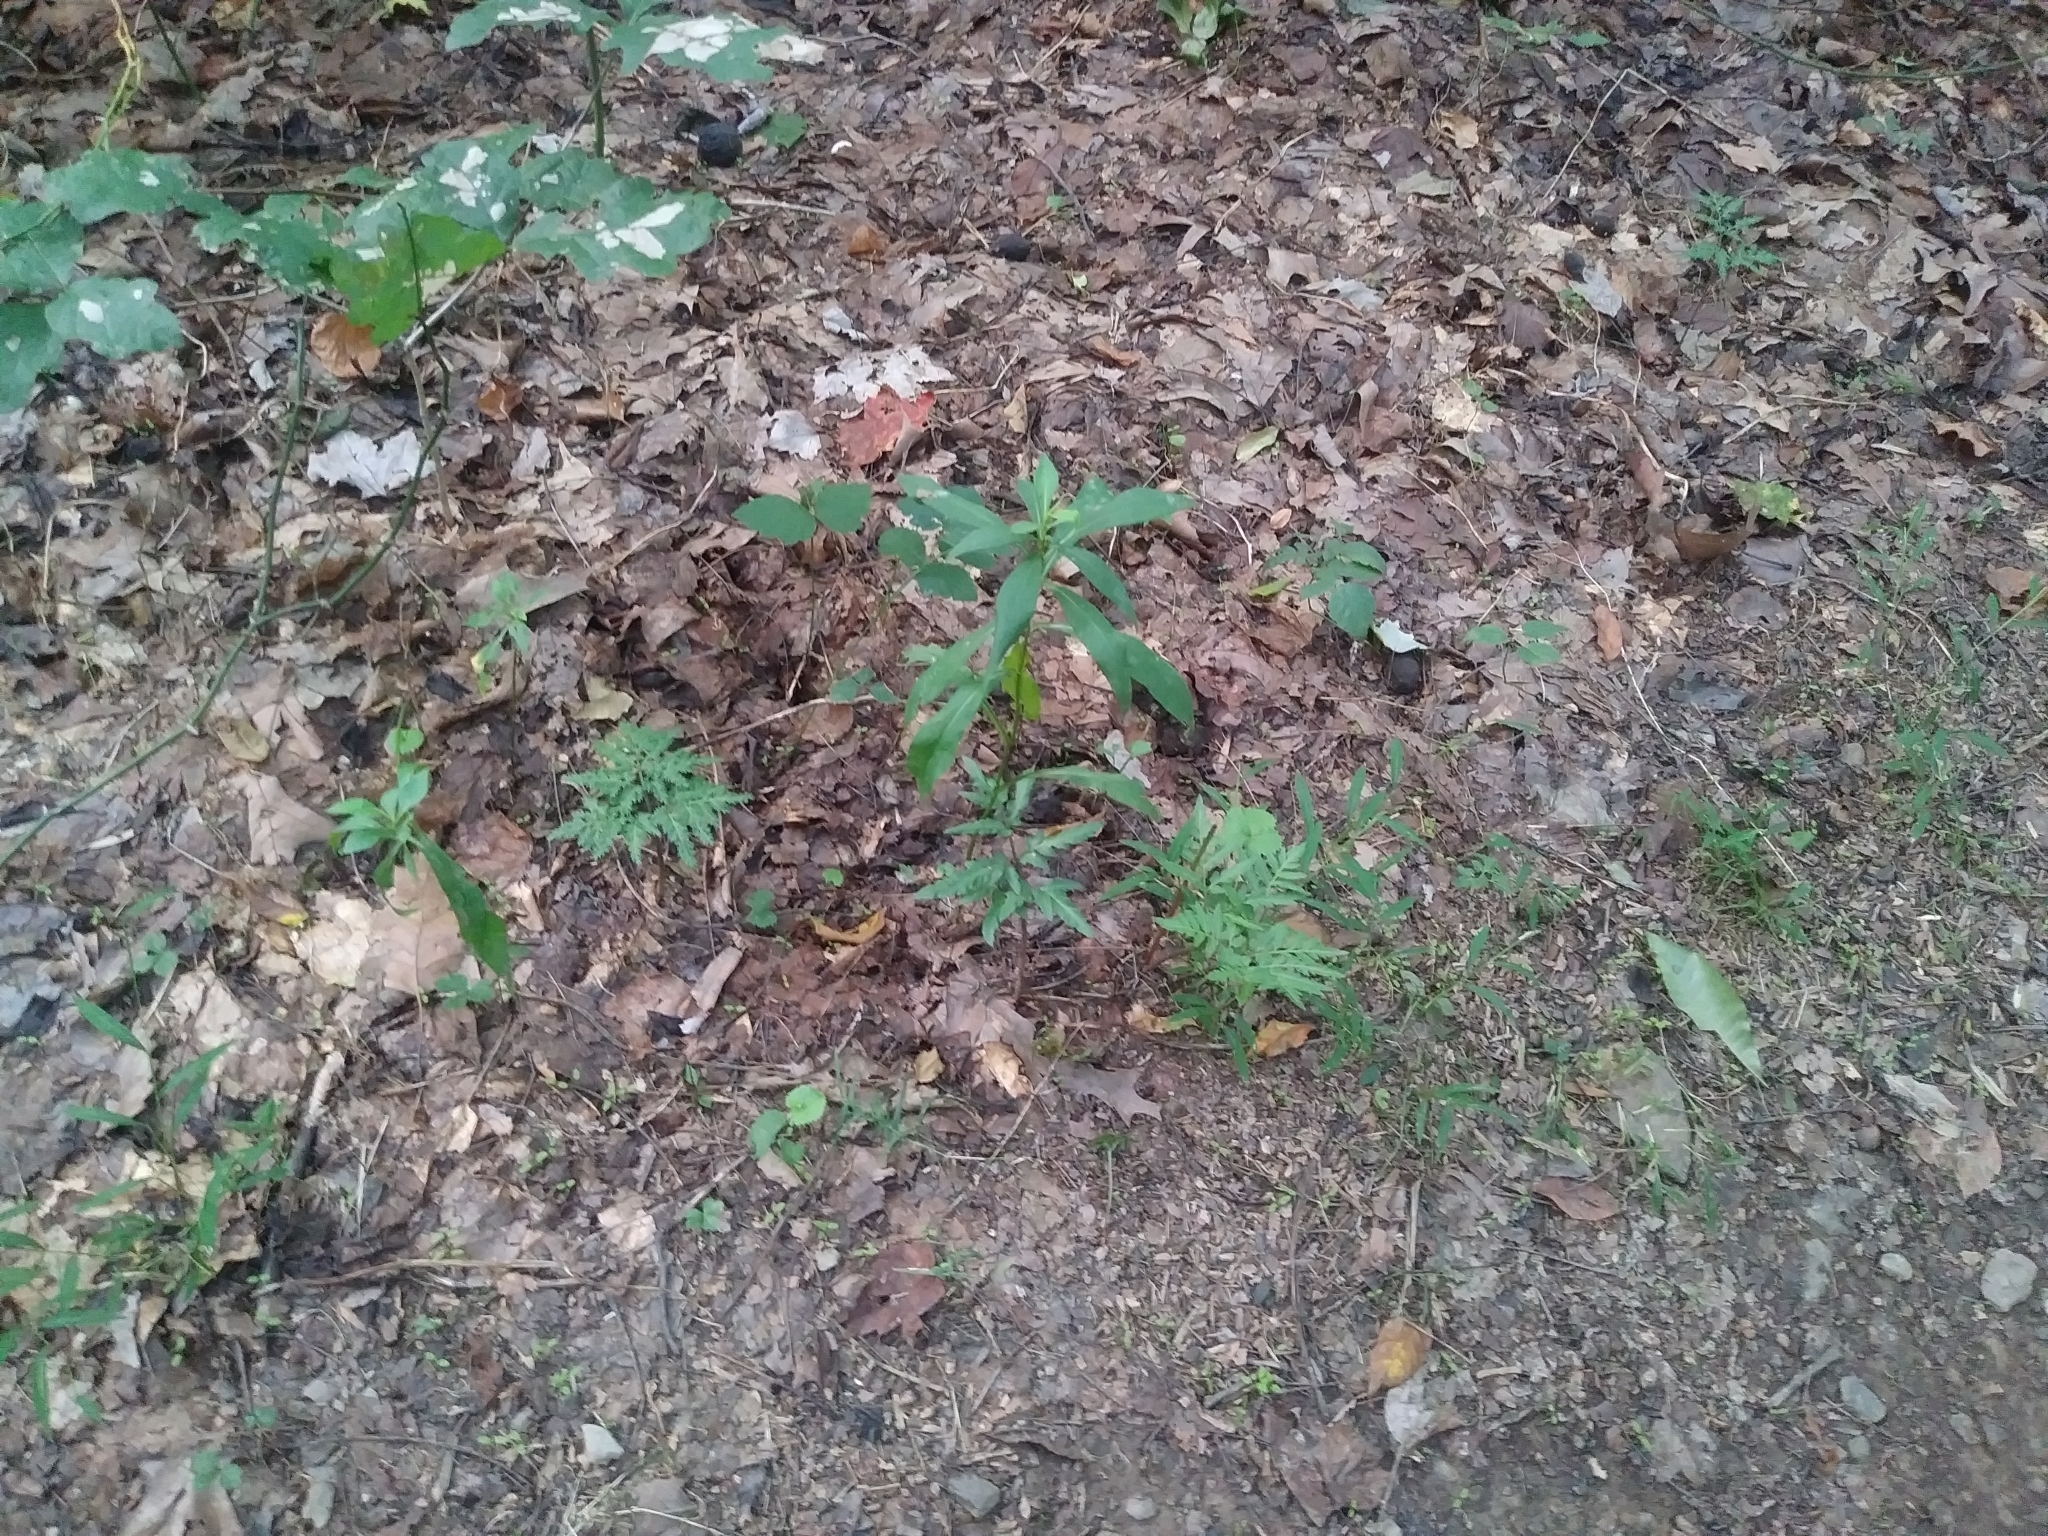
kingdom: Plantae
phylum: Tracheophyta
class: Polypodiopsida
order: Ophioglossales
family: Ophioglossaceae
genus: Sceptridium
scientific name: Sceptridium dissectum
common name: Cut-leaved grapefern
